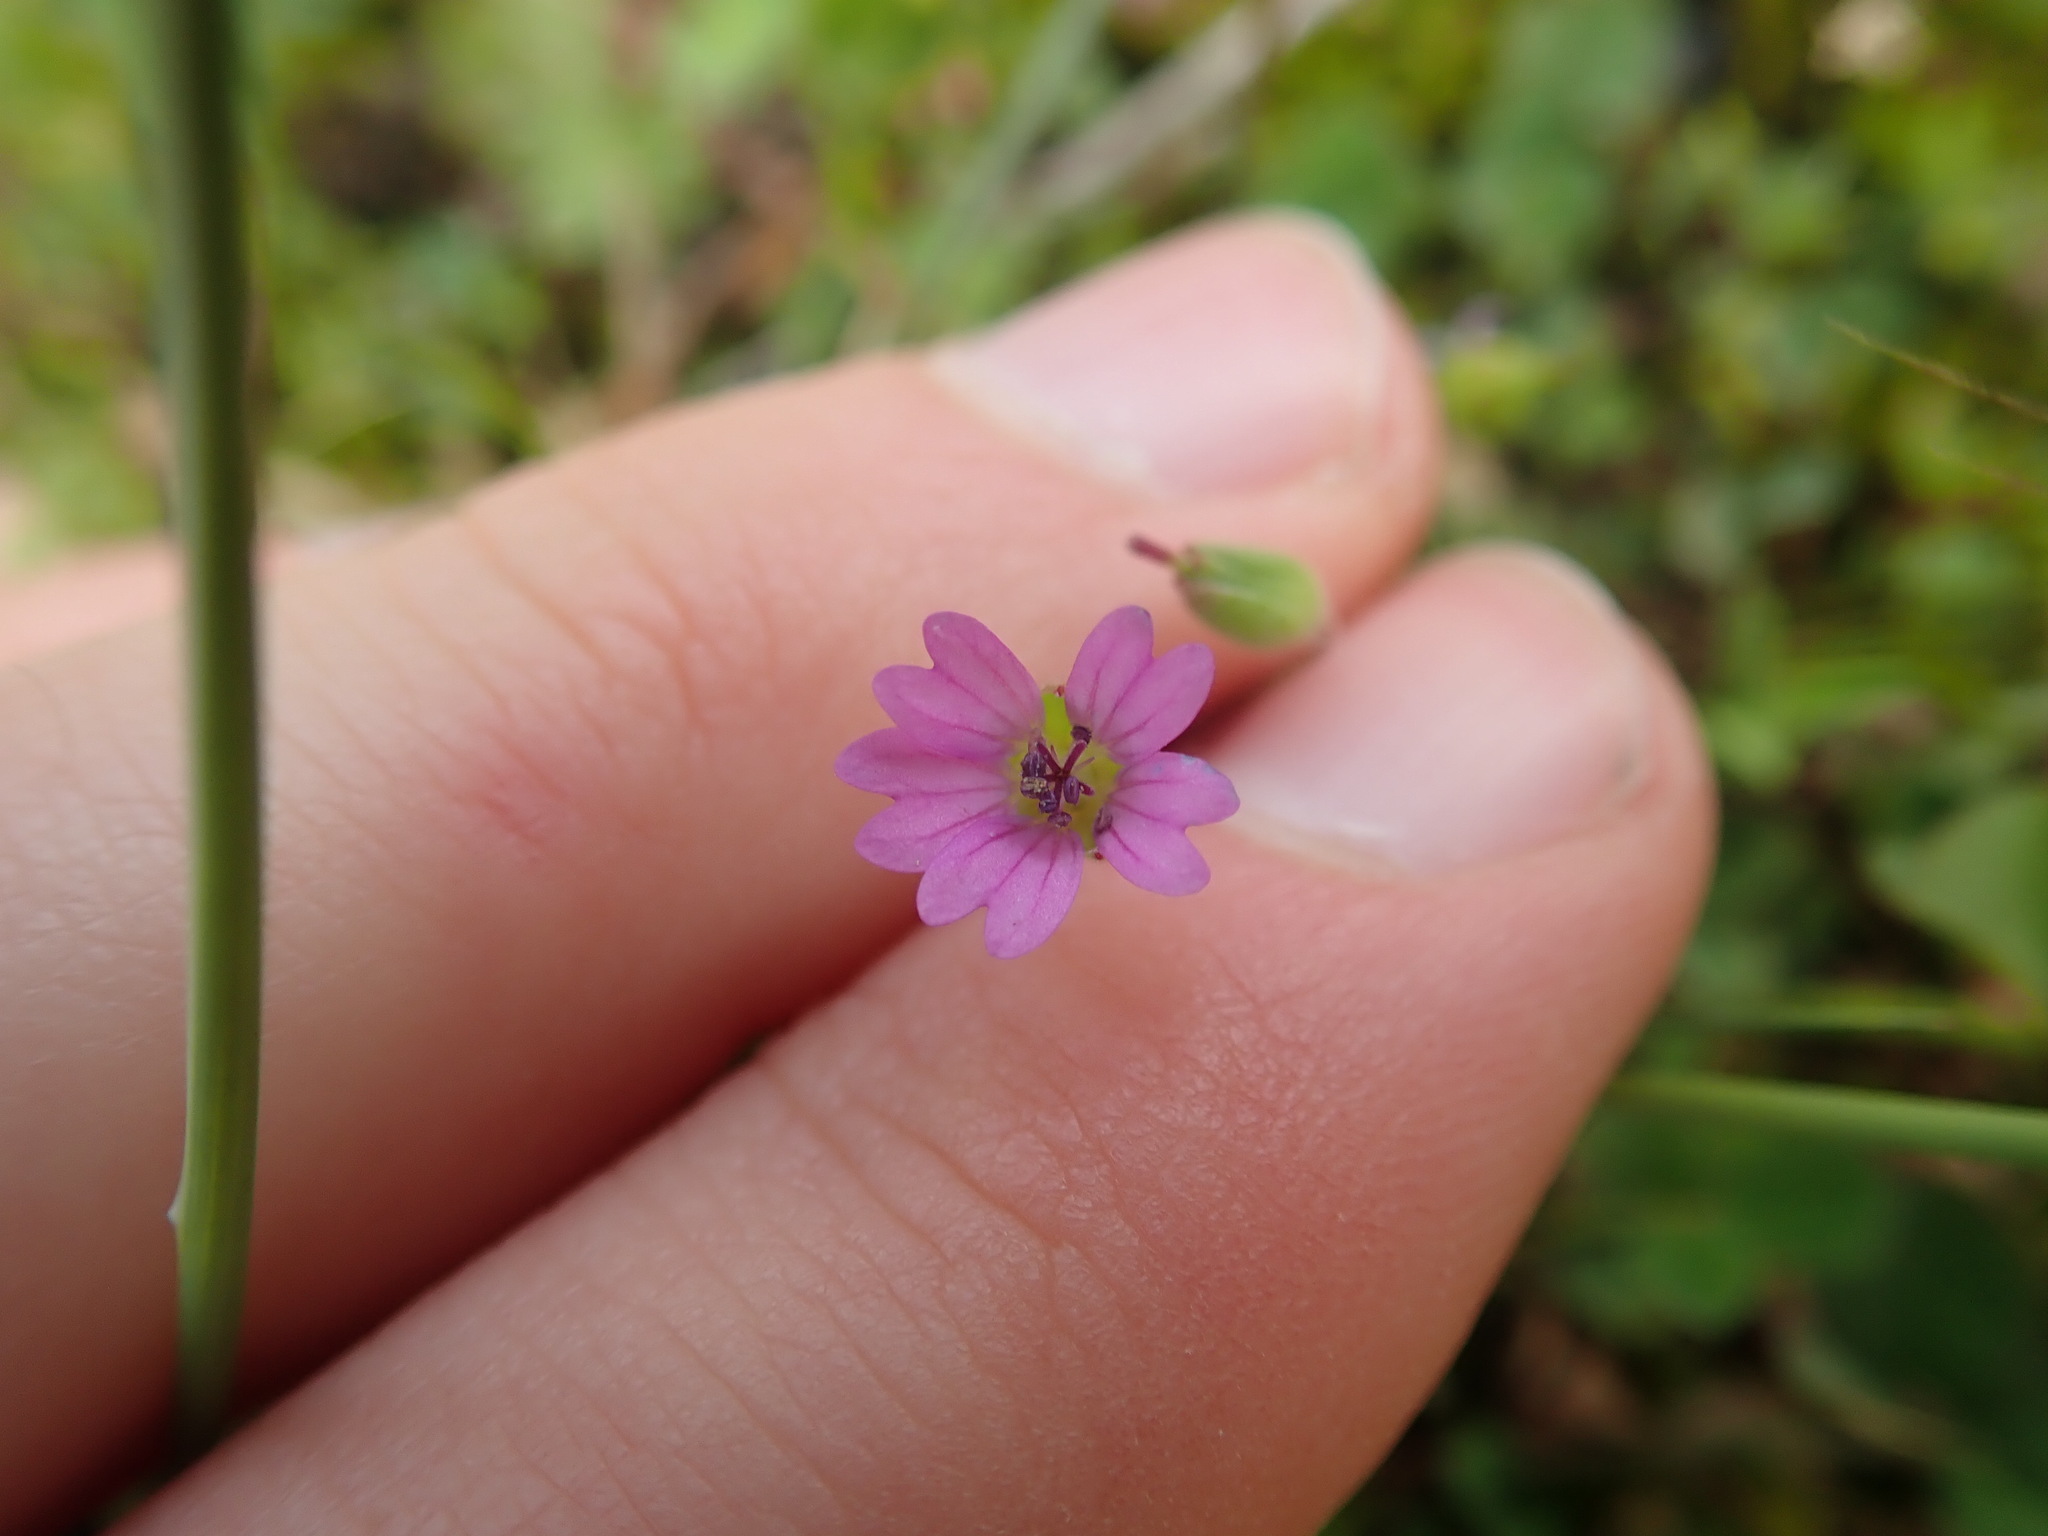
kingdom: Plantae
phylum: Tracheophyta
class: Magnoliopsida
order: Geraniales
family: Geraniaceae
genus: Geranium
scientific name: Geranium molle
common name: Dove's-foot crane's-bill
